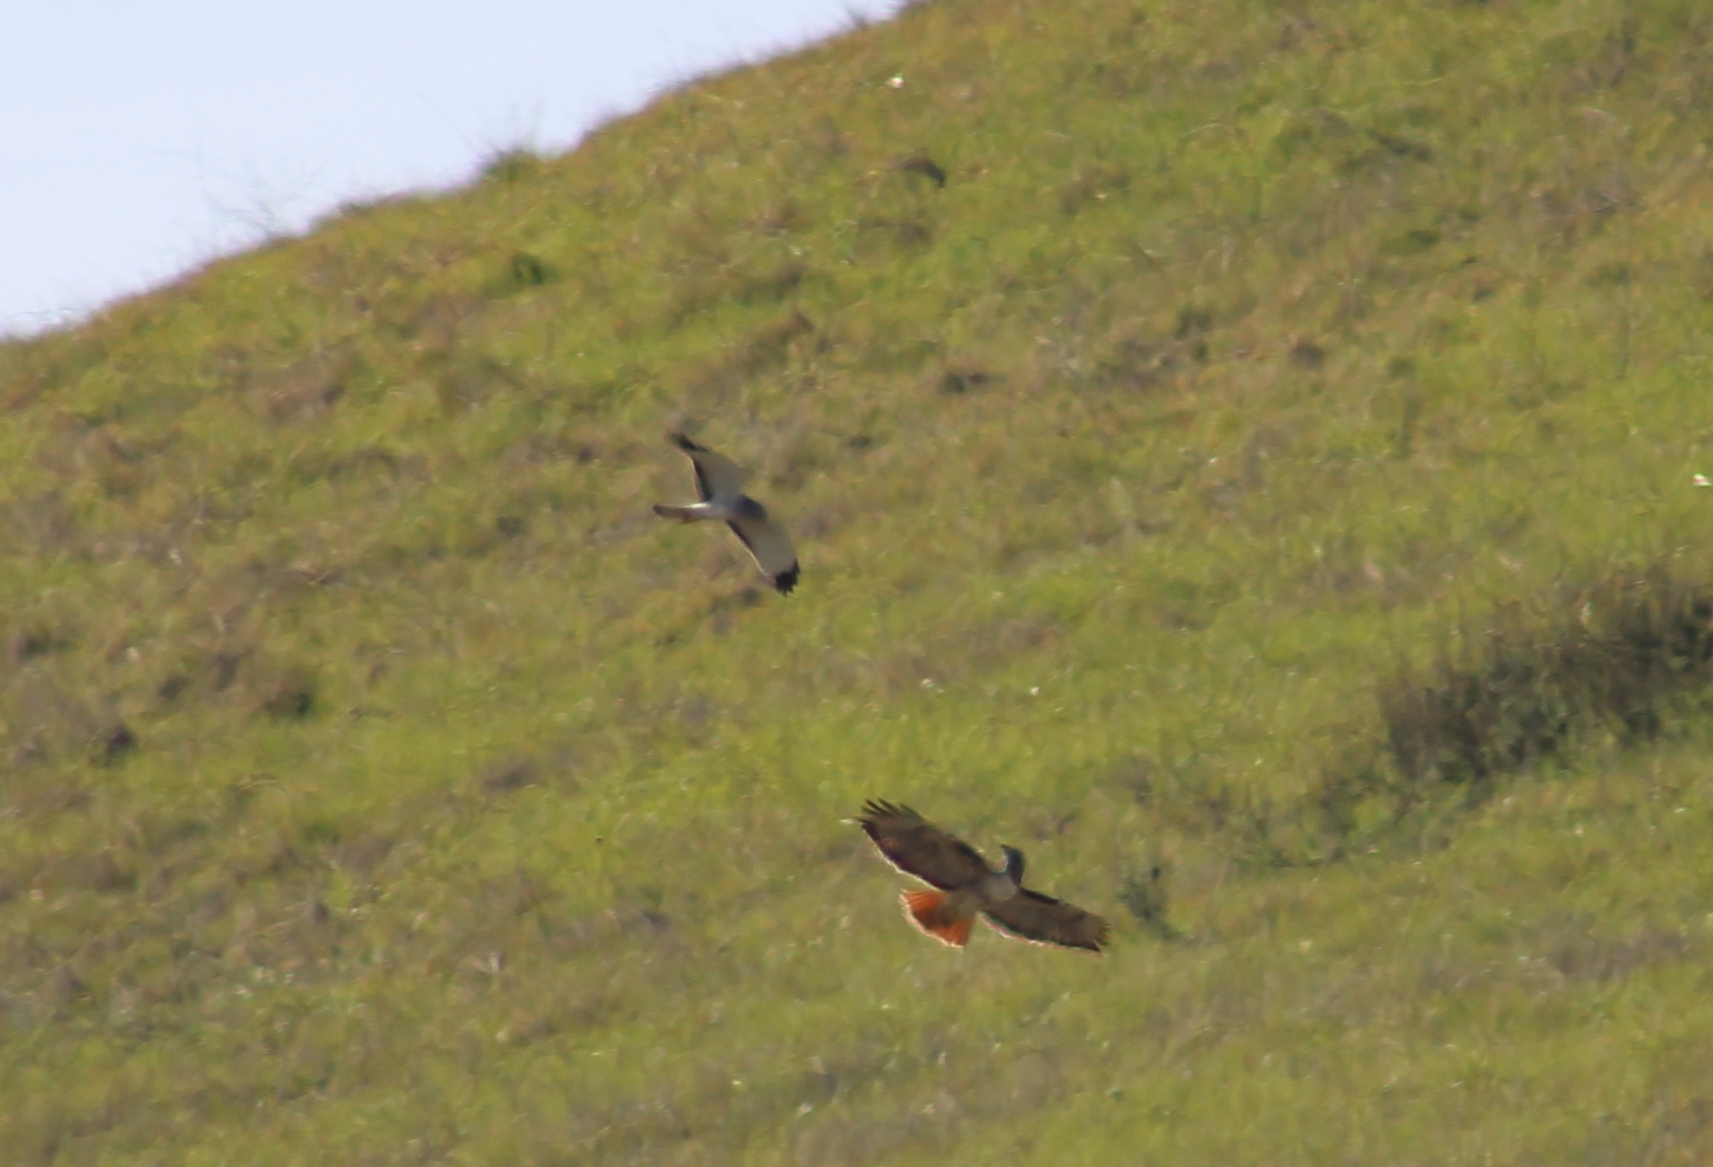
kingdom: Animalia
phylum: Chordata
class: Aves
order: Accipitriformes
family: Accipitridae
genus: Buteo
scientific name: Buteo jamaicensis
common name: Red-tailed hawk
